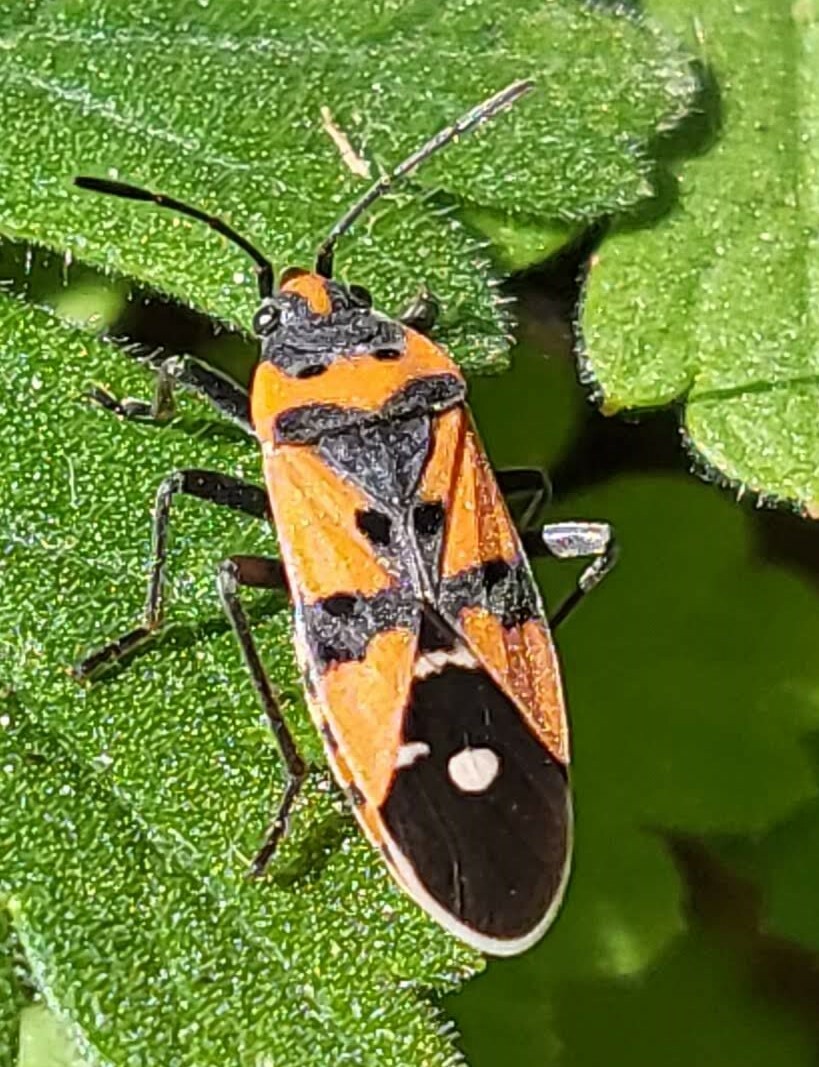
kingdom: Animalia
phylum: Arthropoda
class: Insecta
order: Hemiptera
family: Lygaeidae
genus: Lygaeus
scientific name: Lygaeus equestris
